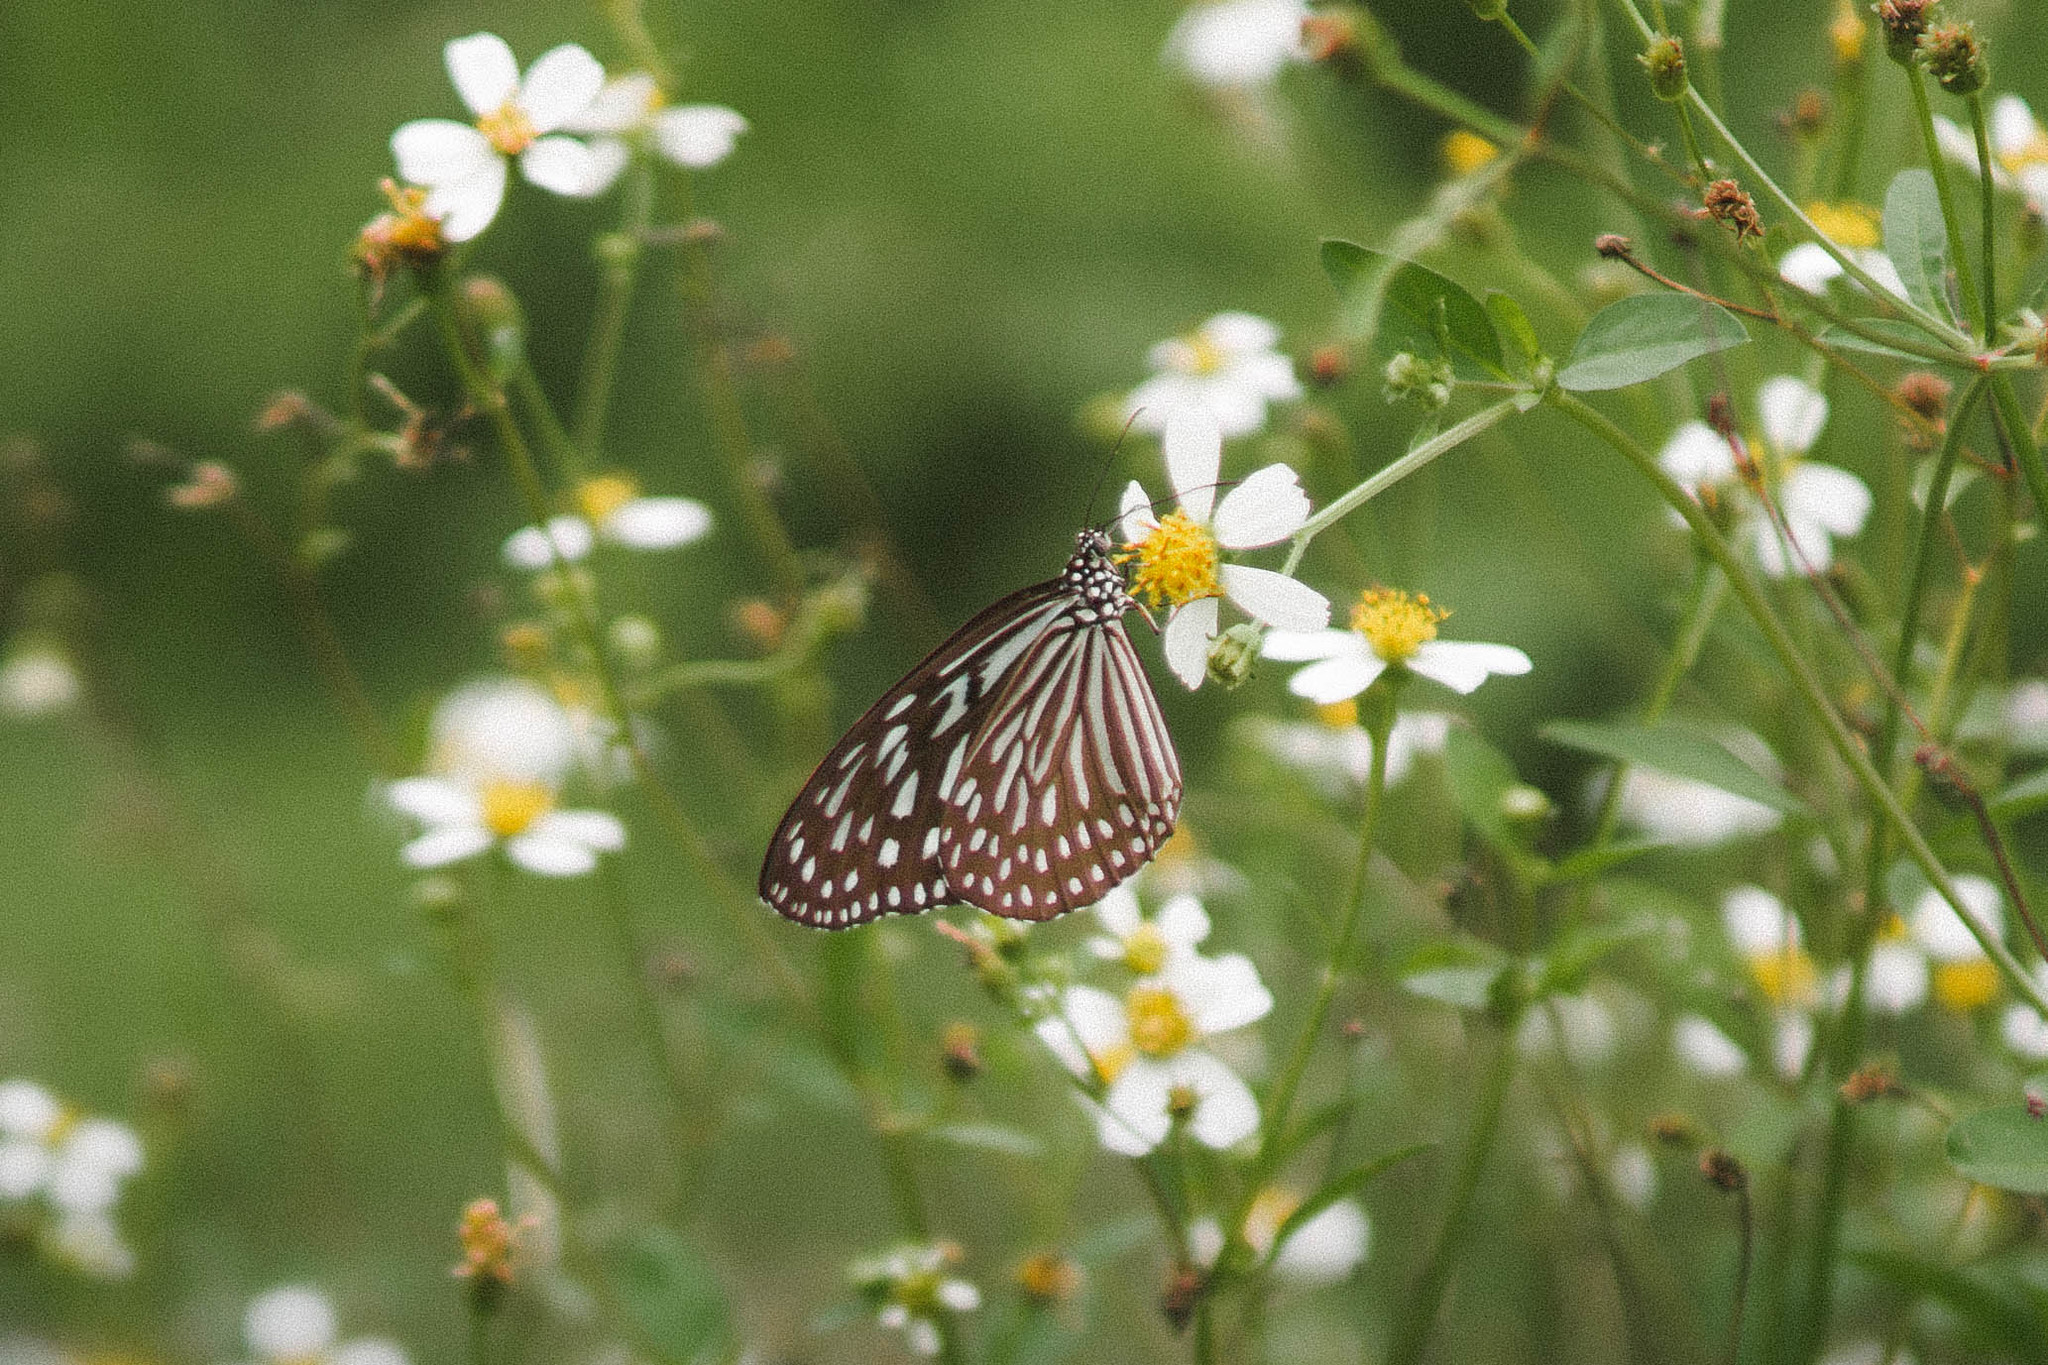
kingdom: Animalia
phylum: Arthropoda
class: Insecta
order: Lepidoptera
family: Nymphalidae
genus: Ideopsis
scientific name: Ideopsis vulgaris
